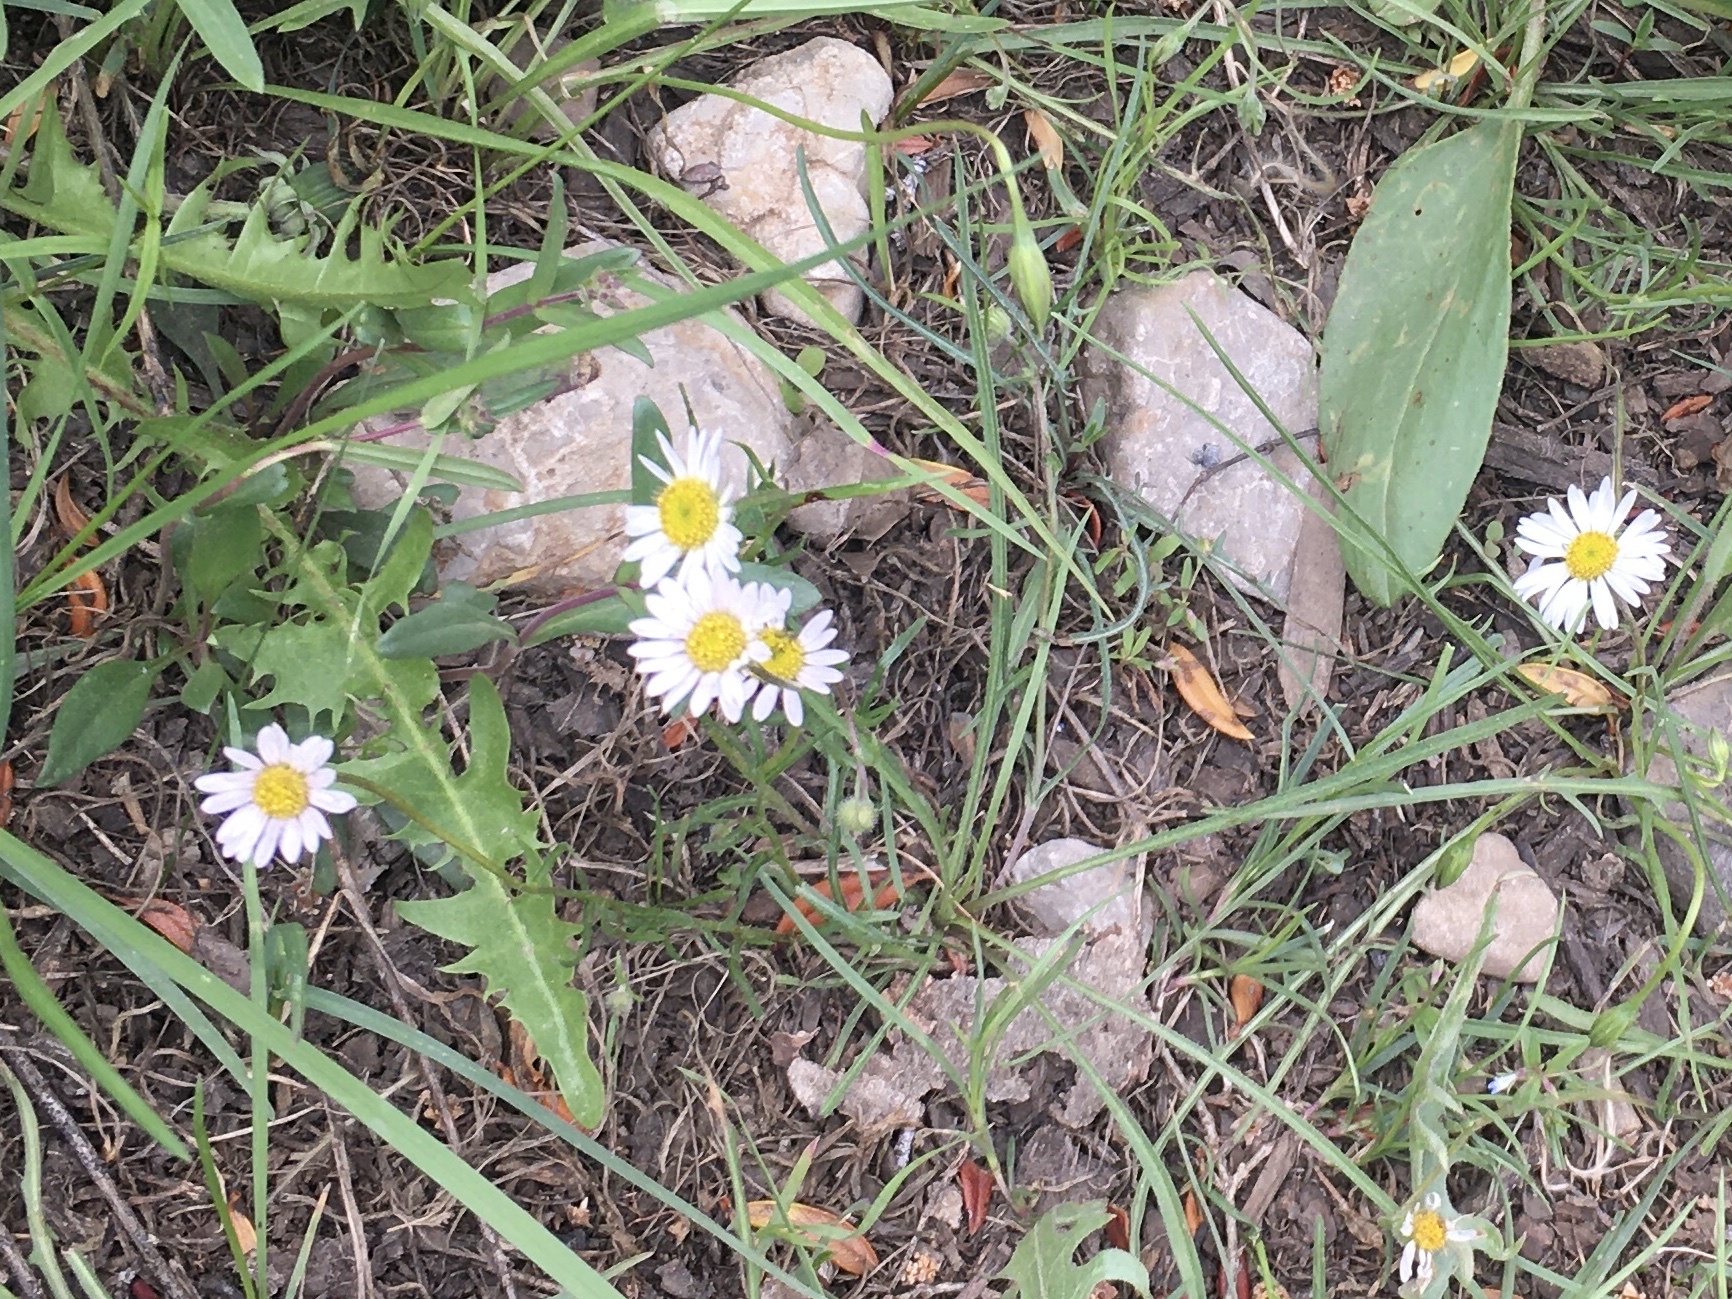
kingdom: Plantae
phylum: Tracheophyta
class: Magnoliopsida
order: Asterales
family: Asteraceae
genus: Bellis
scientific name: Bellis perennis
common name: Lawndaisy
